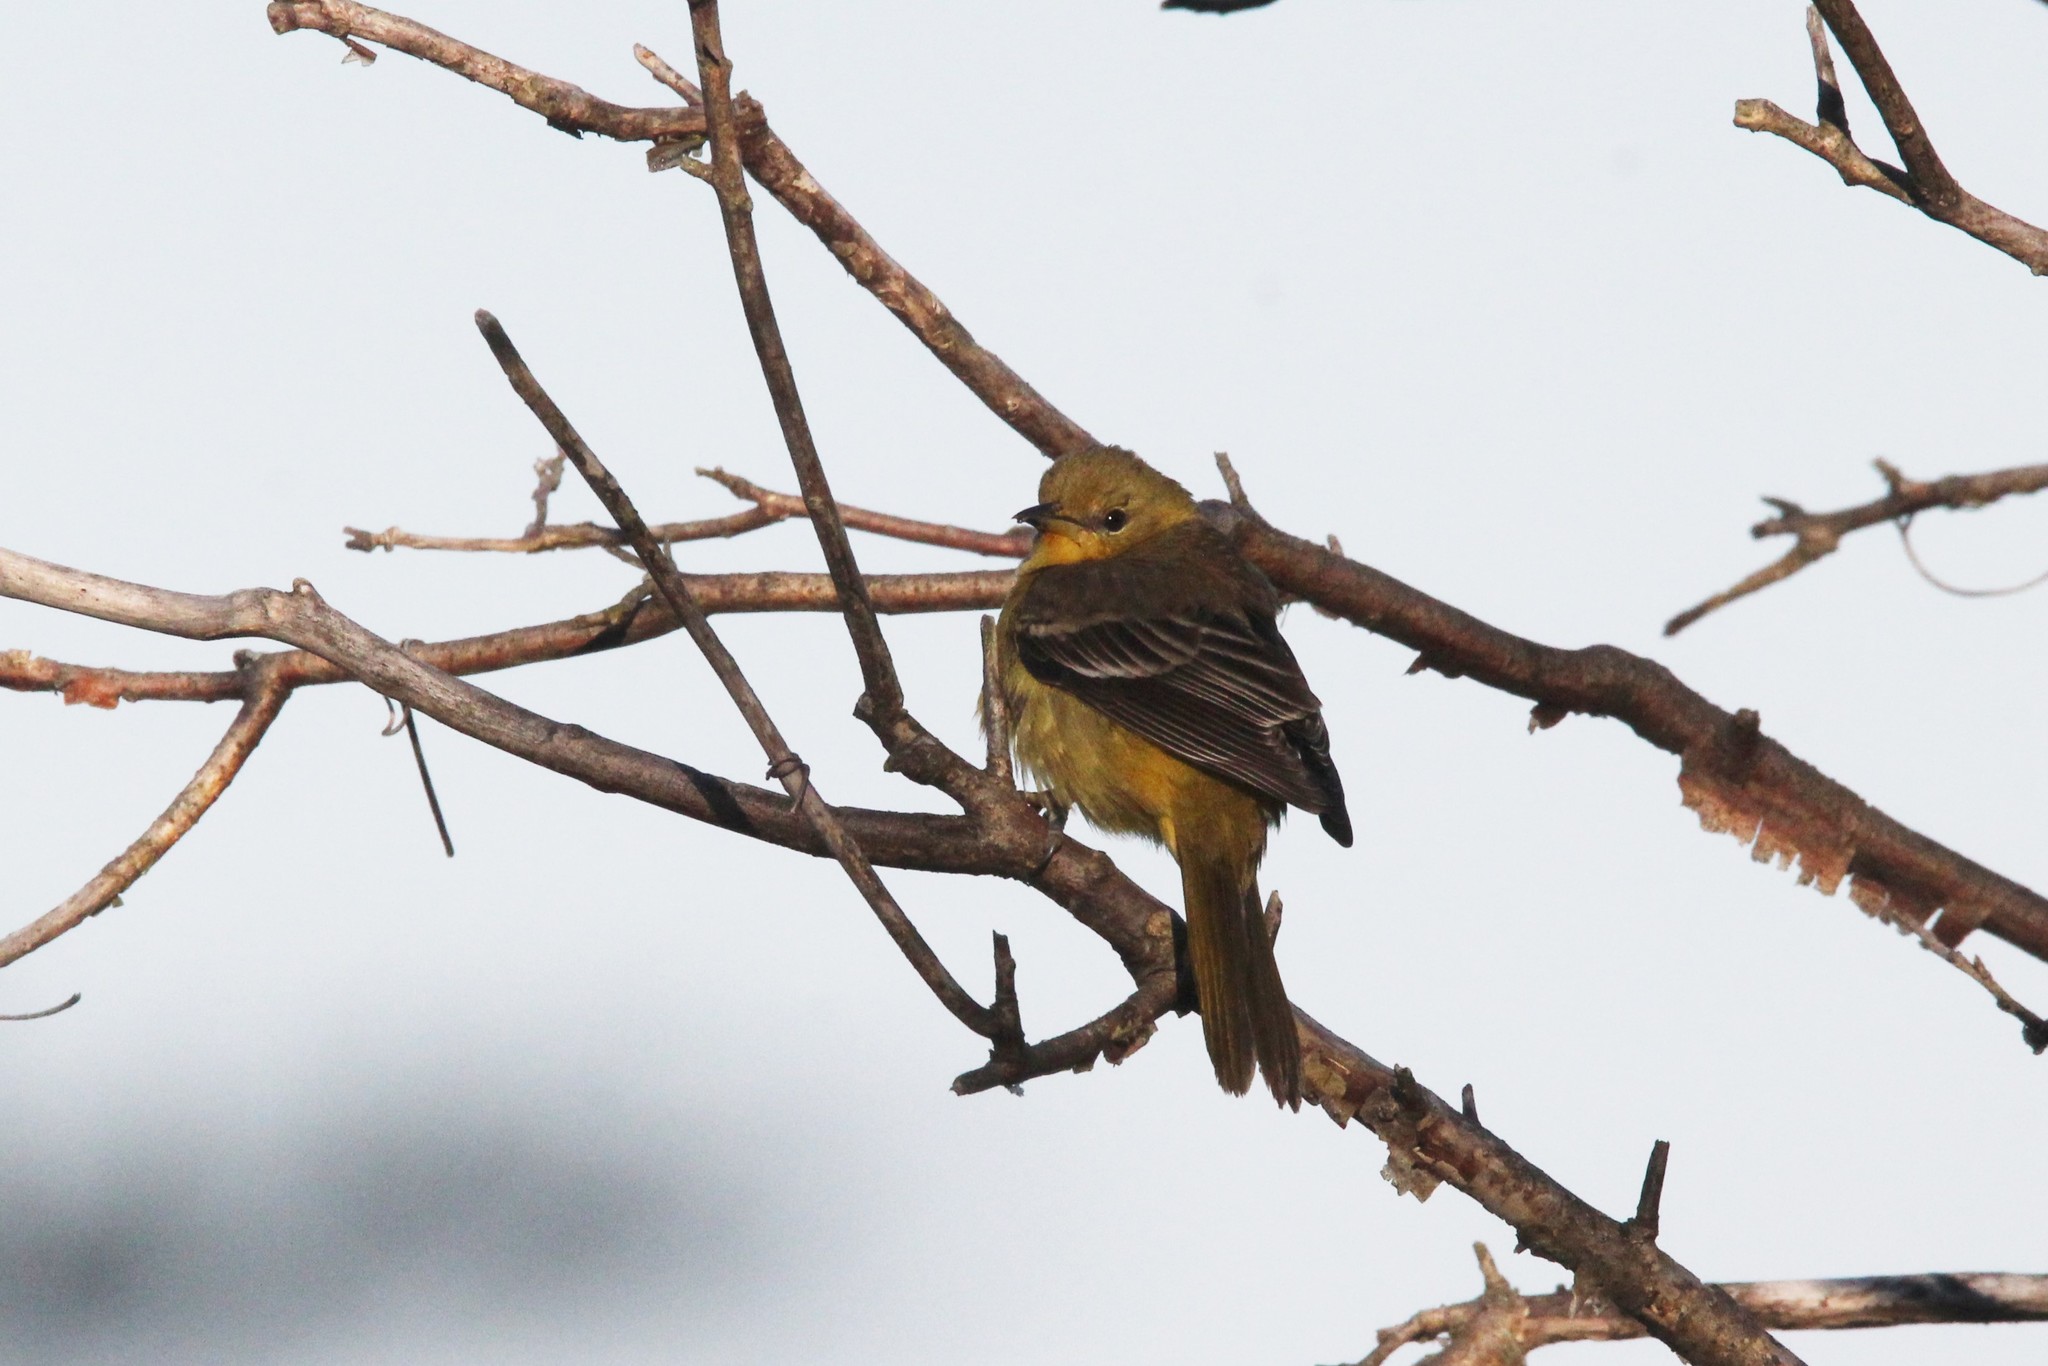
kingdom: Animalia
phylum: Chordata
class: Aves
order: Passeriformes
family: Icteridae
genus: Icterus
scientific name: Icterus spurius
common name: Orchard oriole
